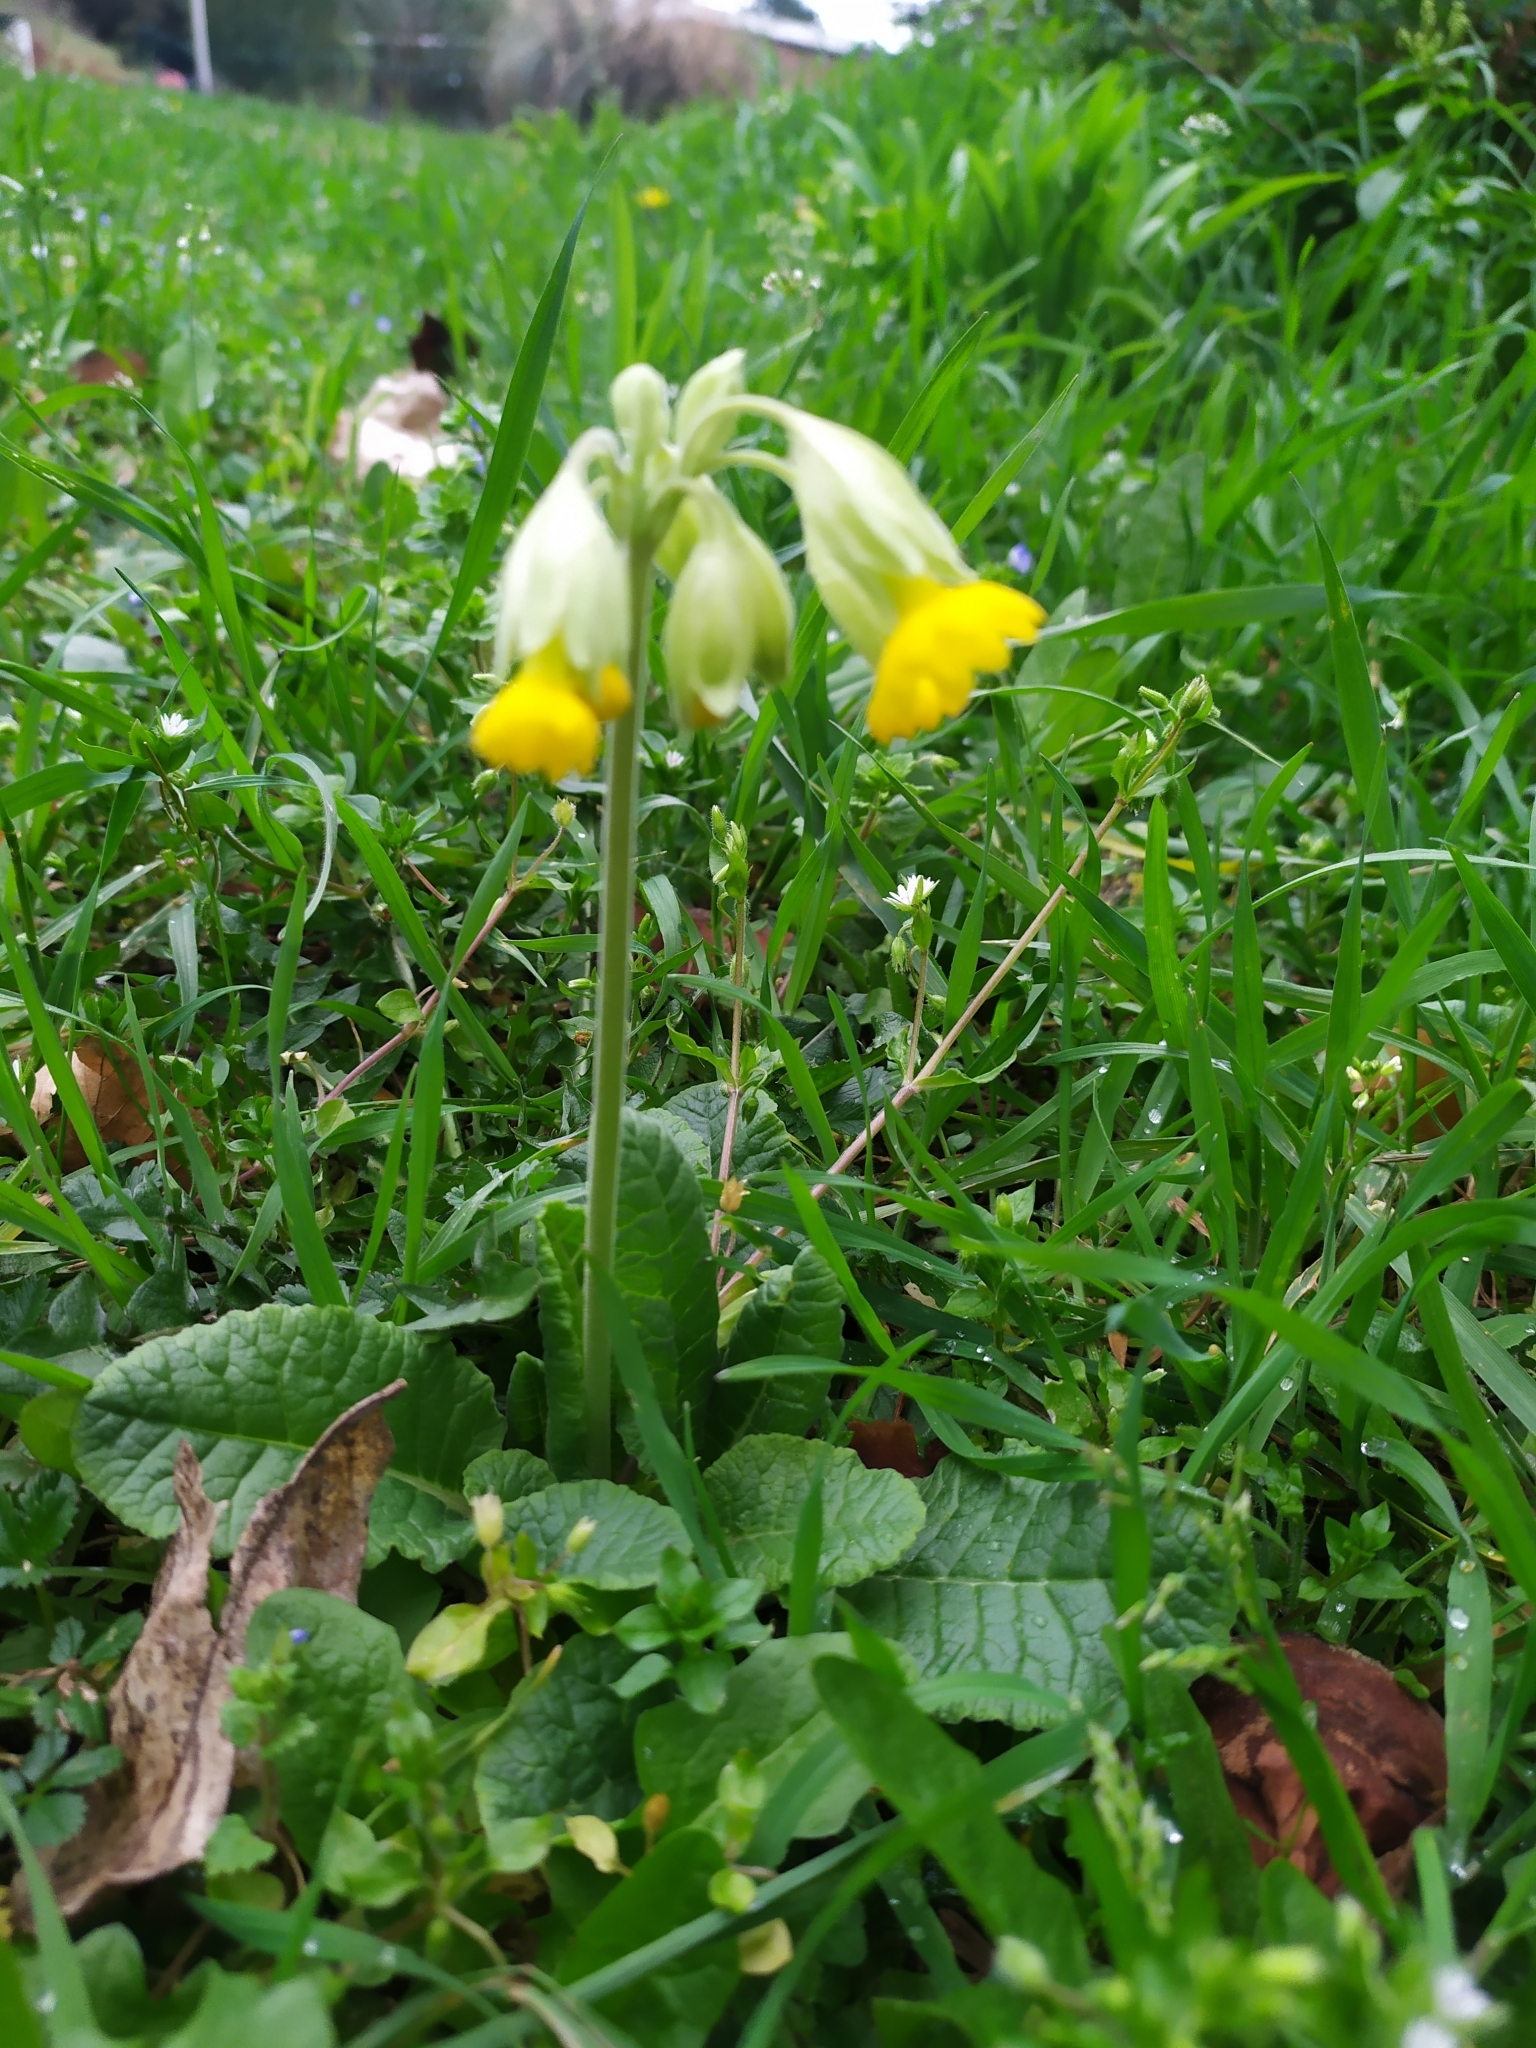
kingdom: Plantae
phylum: Tracheophyta
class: Magnoliopsida
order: Ericales
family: Primulaceae
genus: Primula
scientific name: Primula veris
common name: Cowslip
